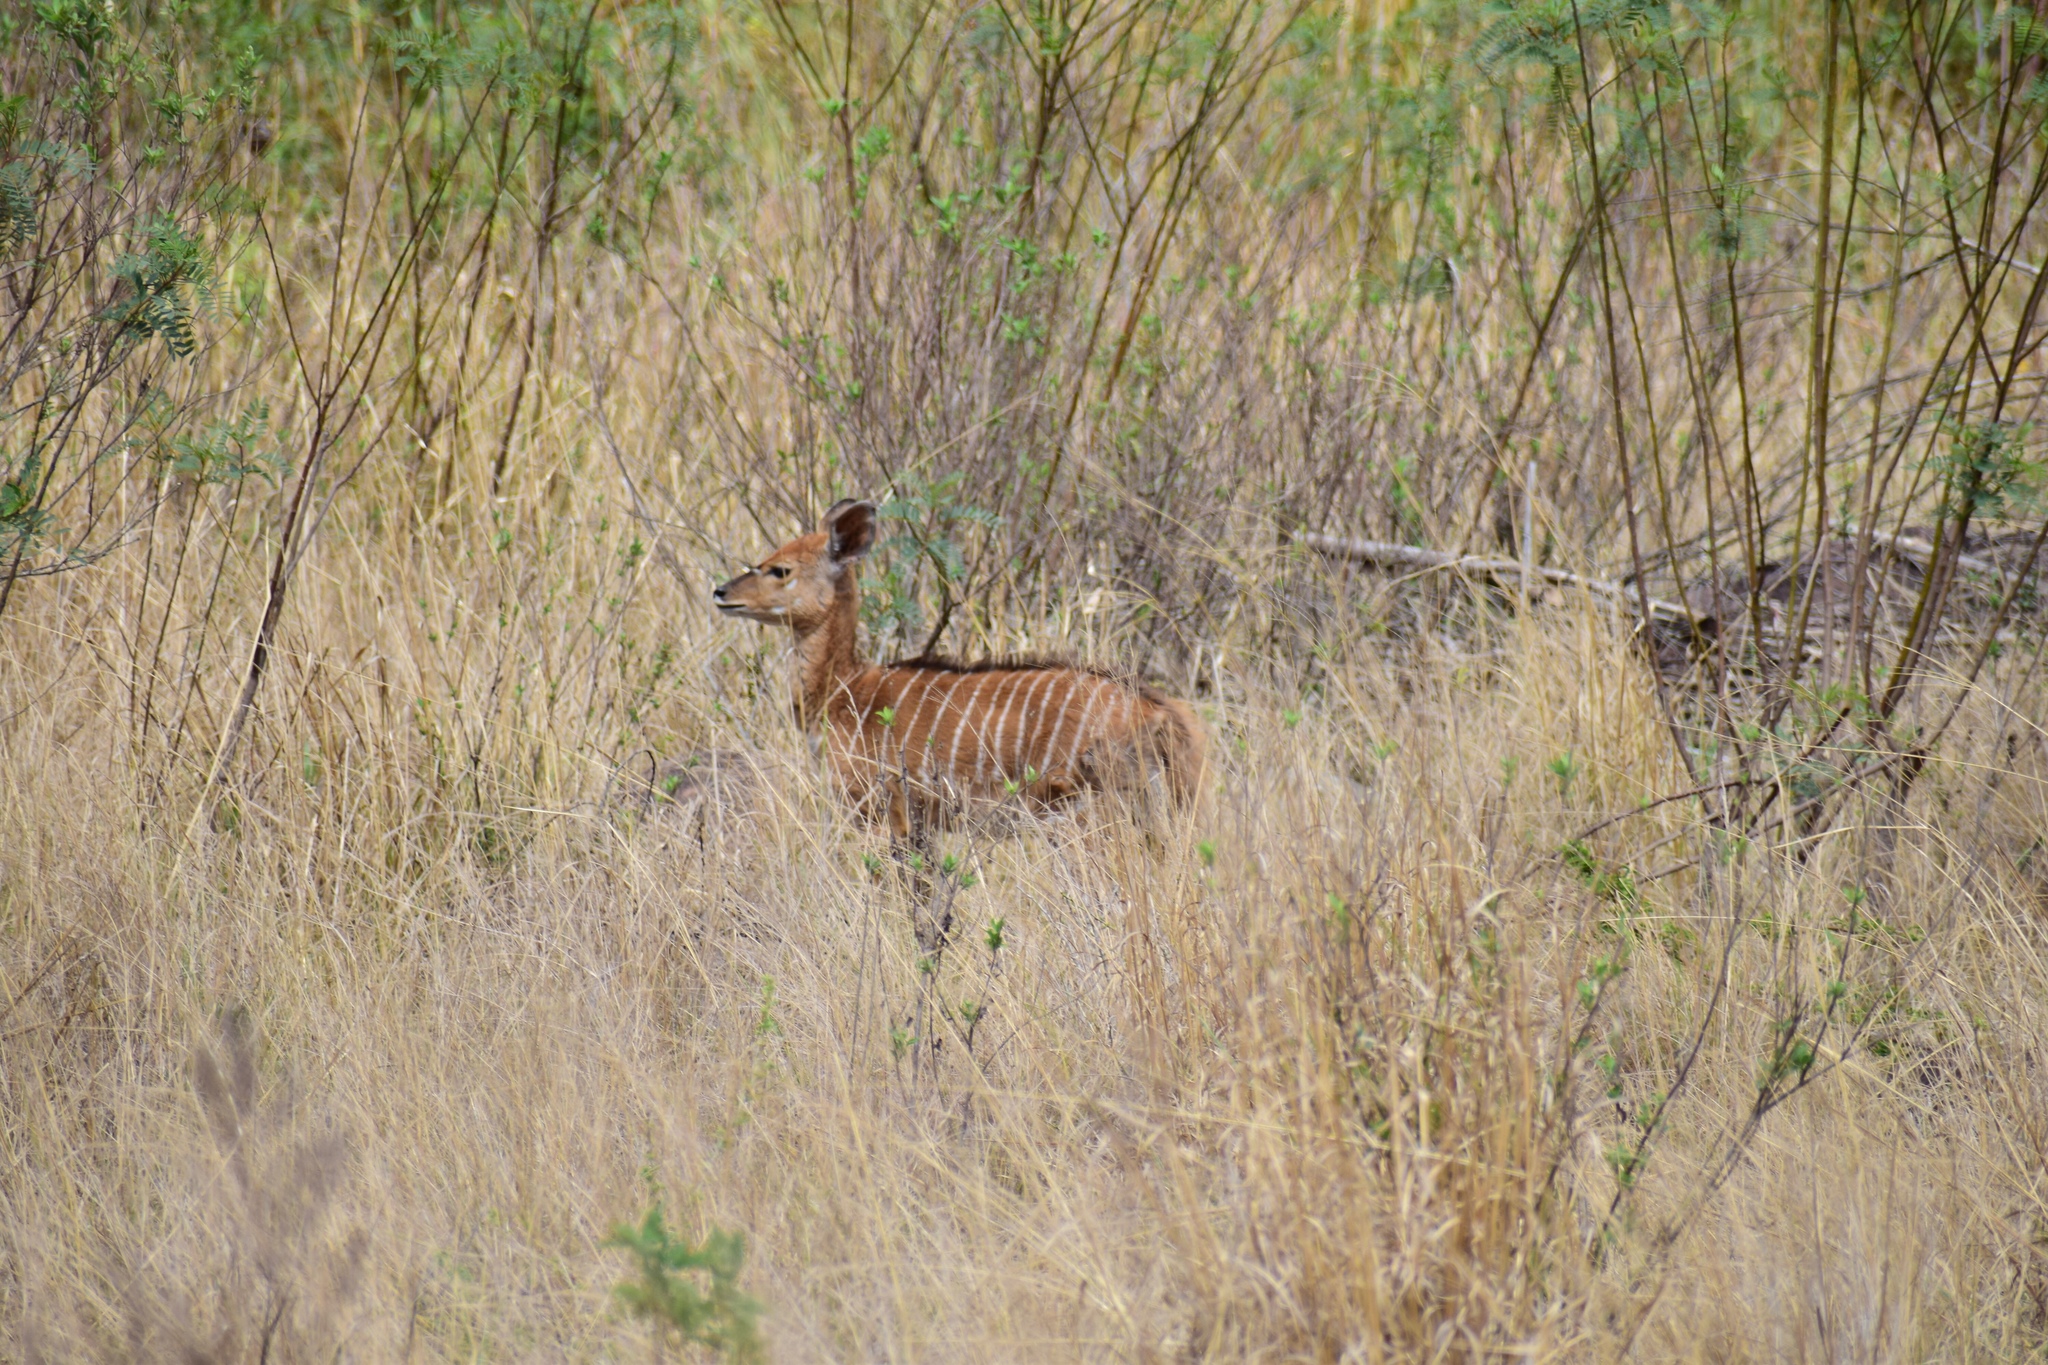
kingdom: Animalia
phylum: Chordata
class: Mammalia
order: Artiodactyla
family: Bovidae
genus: Tragelaphus
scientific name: Tragelaphus angasii
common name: Nyala
